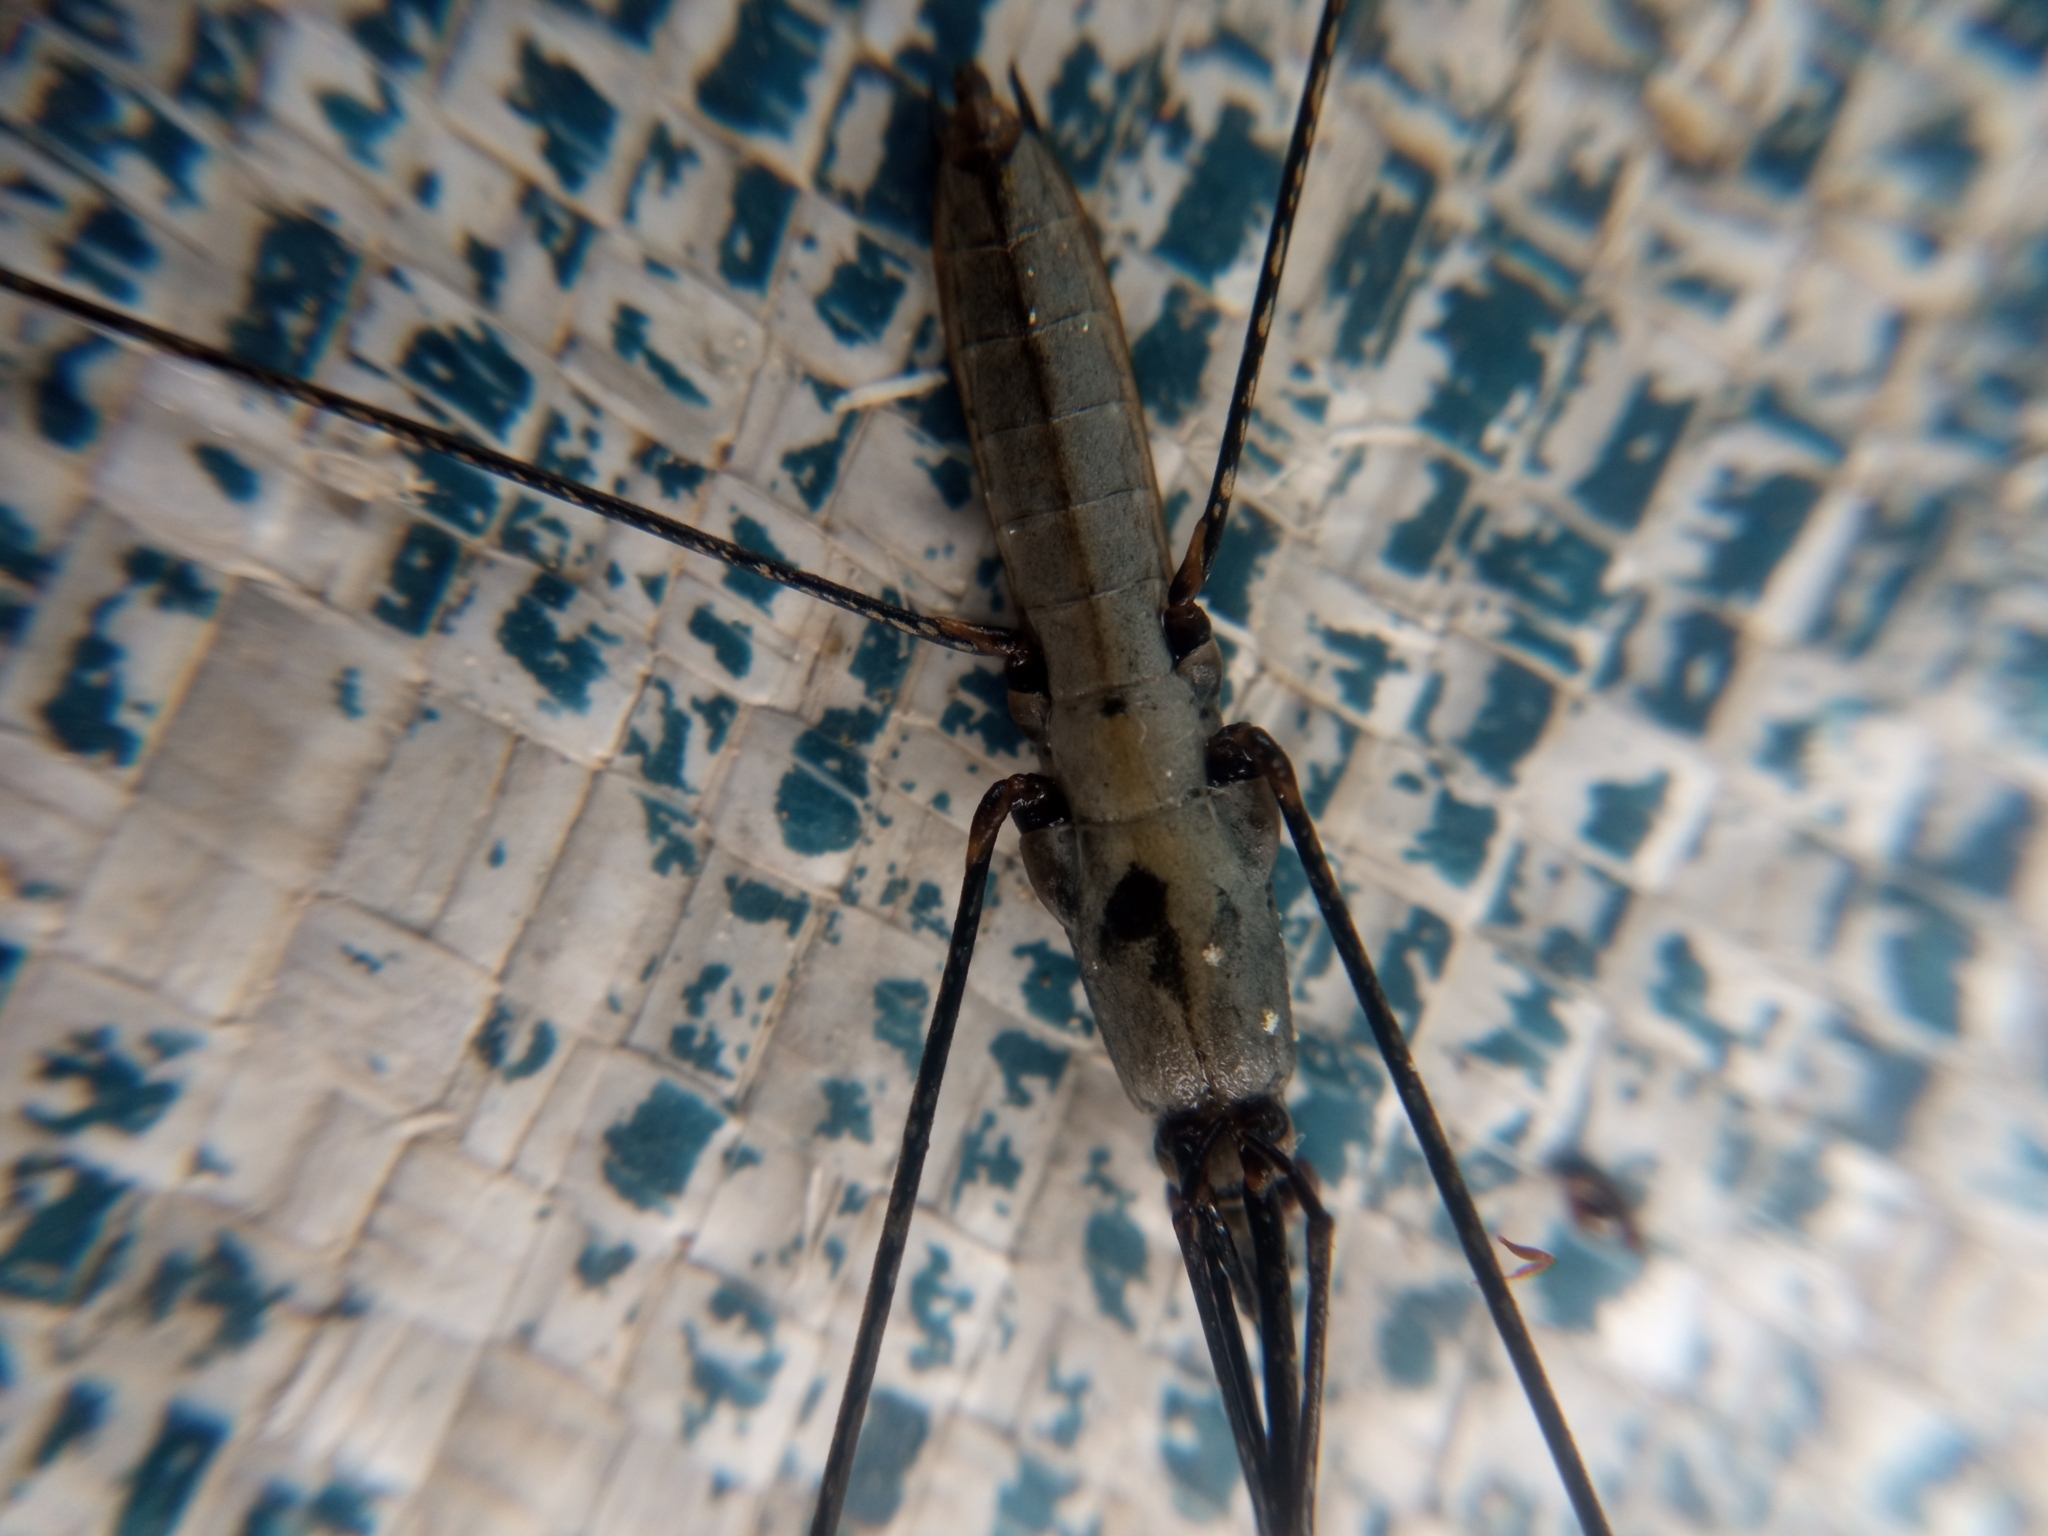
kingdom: Animalia
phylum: Arthropoda
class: Insecta
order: Hemiptera
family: Gerridae
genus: Aquarius
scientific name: Aquarius paludum
